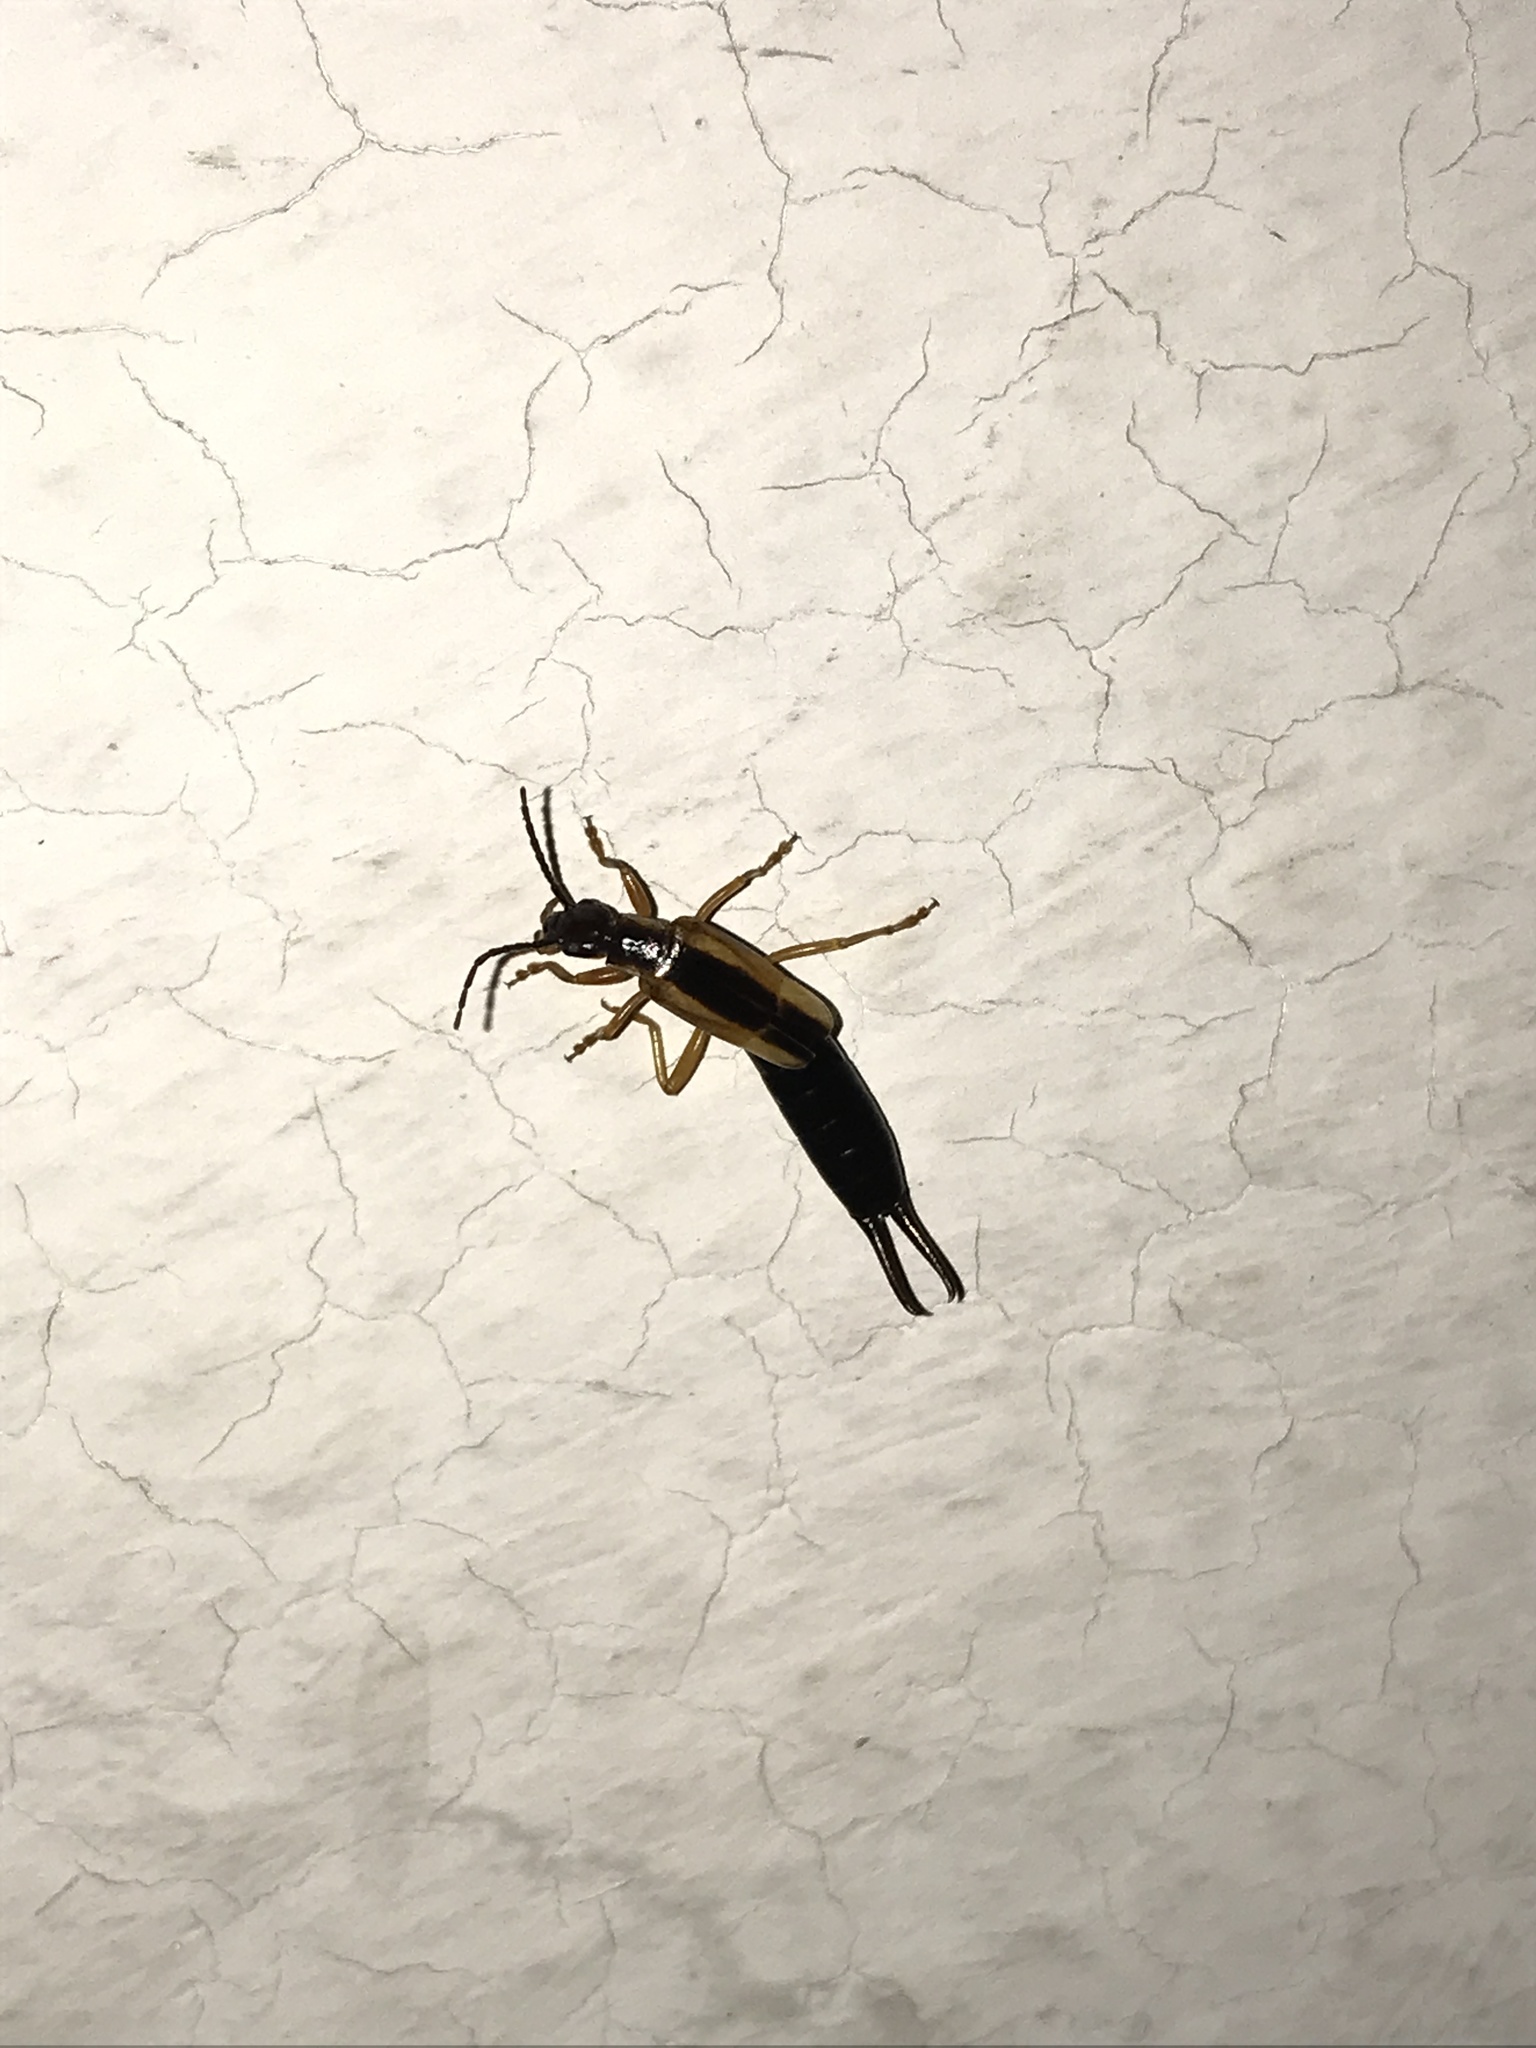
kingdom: Animalia
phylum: Arthropoda
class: Insecta
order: Dermaptera
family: Forficulidae
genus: Doru
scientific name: Doru taeniatum
